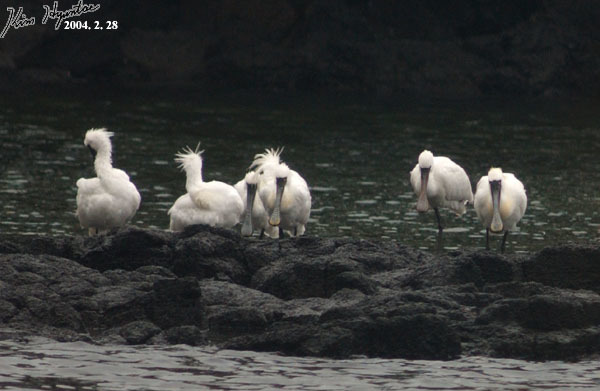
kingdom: Animalia
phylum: Chordata
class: Aves
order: Pelecaniformes
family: Threskiornithidae
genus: Platalea
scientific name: Platalea minor
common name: Black-faced spoonbill
